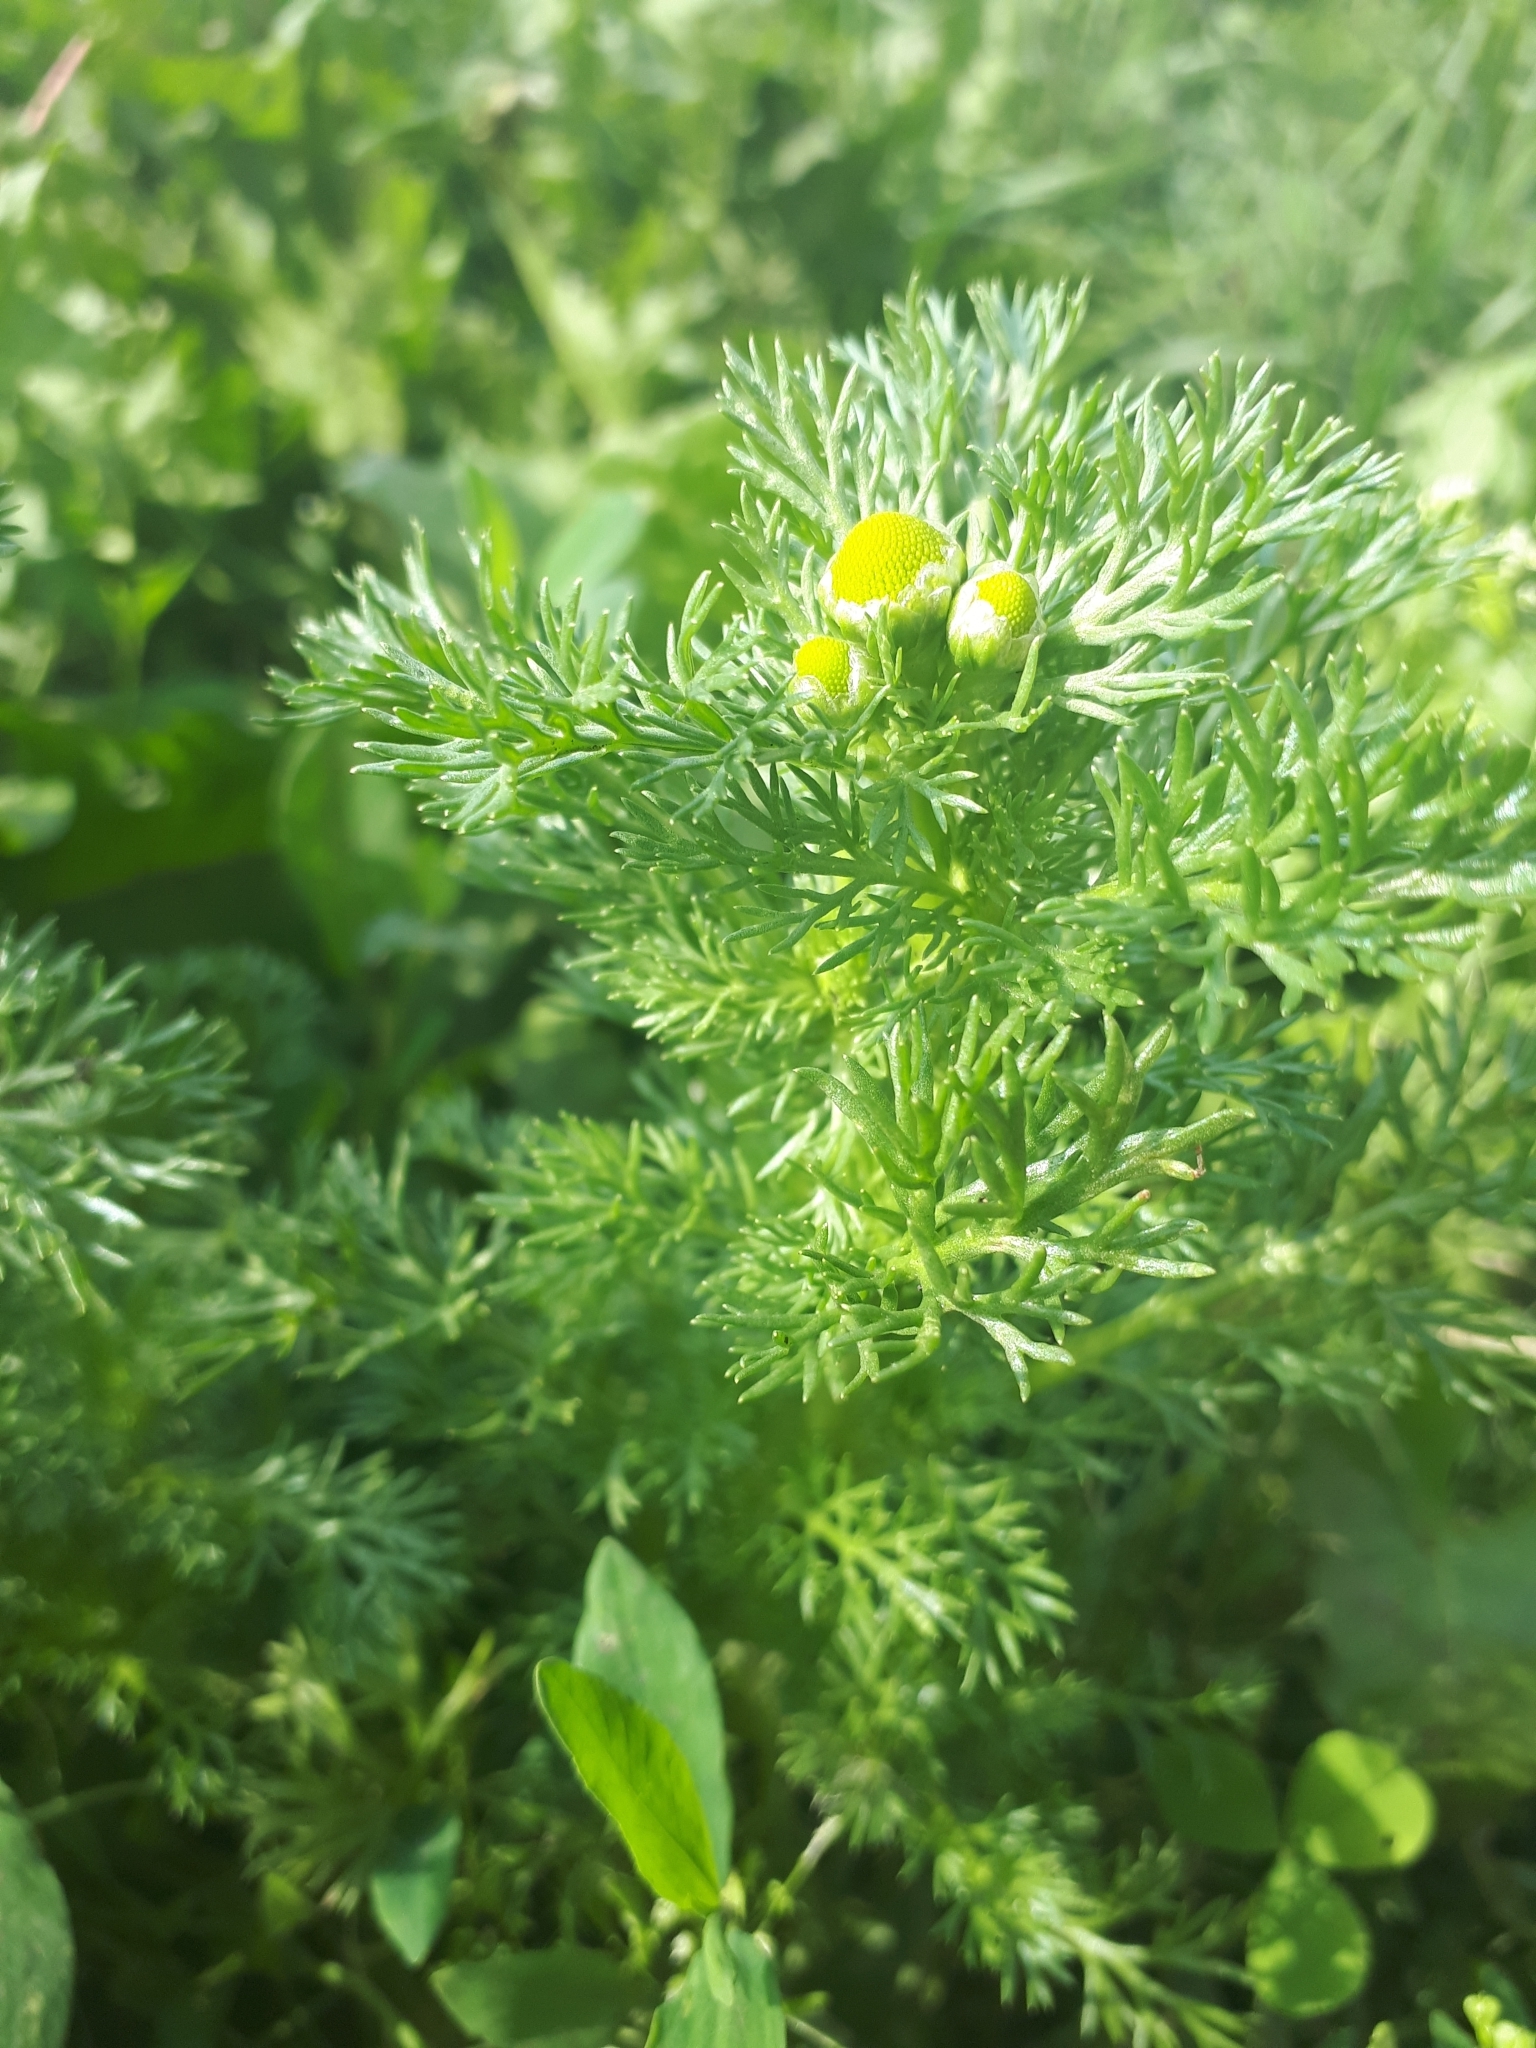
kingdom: Plantae
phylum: Tracheophyta
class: Magnoliopsida
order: Asterales
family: Asteraceae
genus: Matricaria
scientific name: Matricaria discoidea
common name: Disc mayweed
